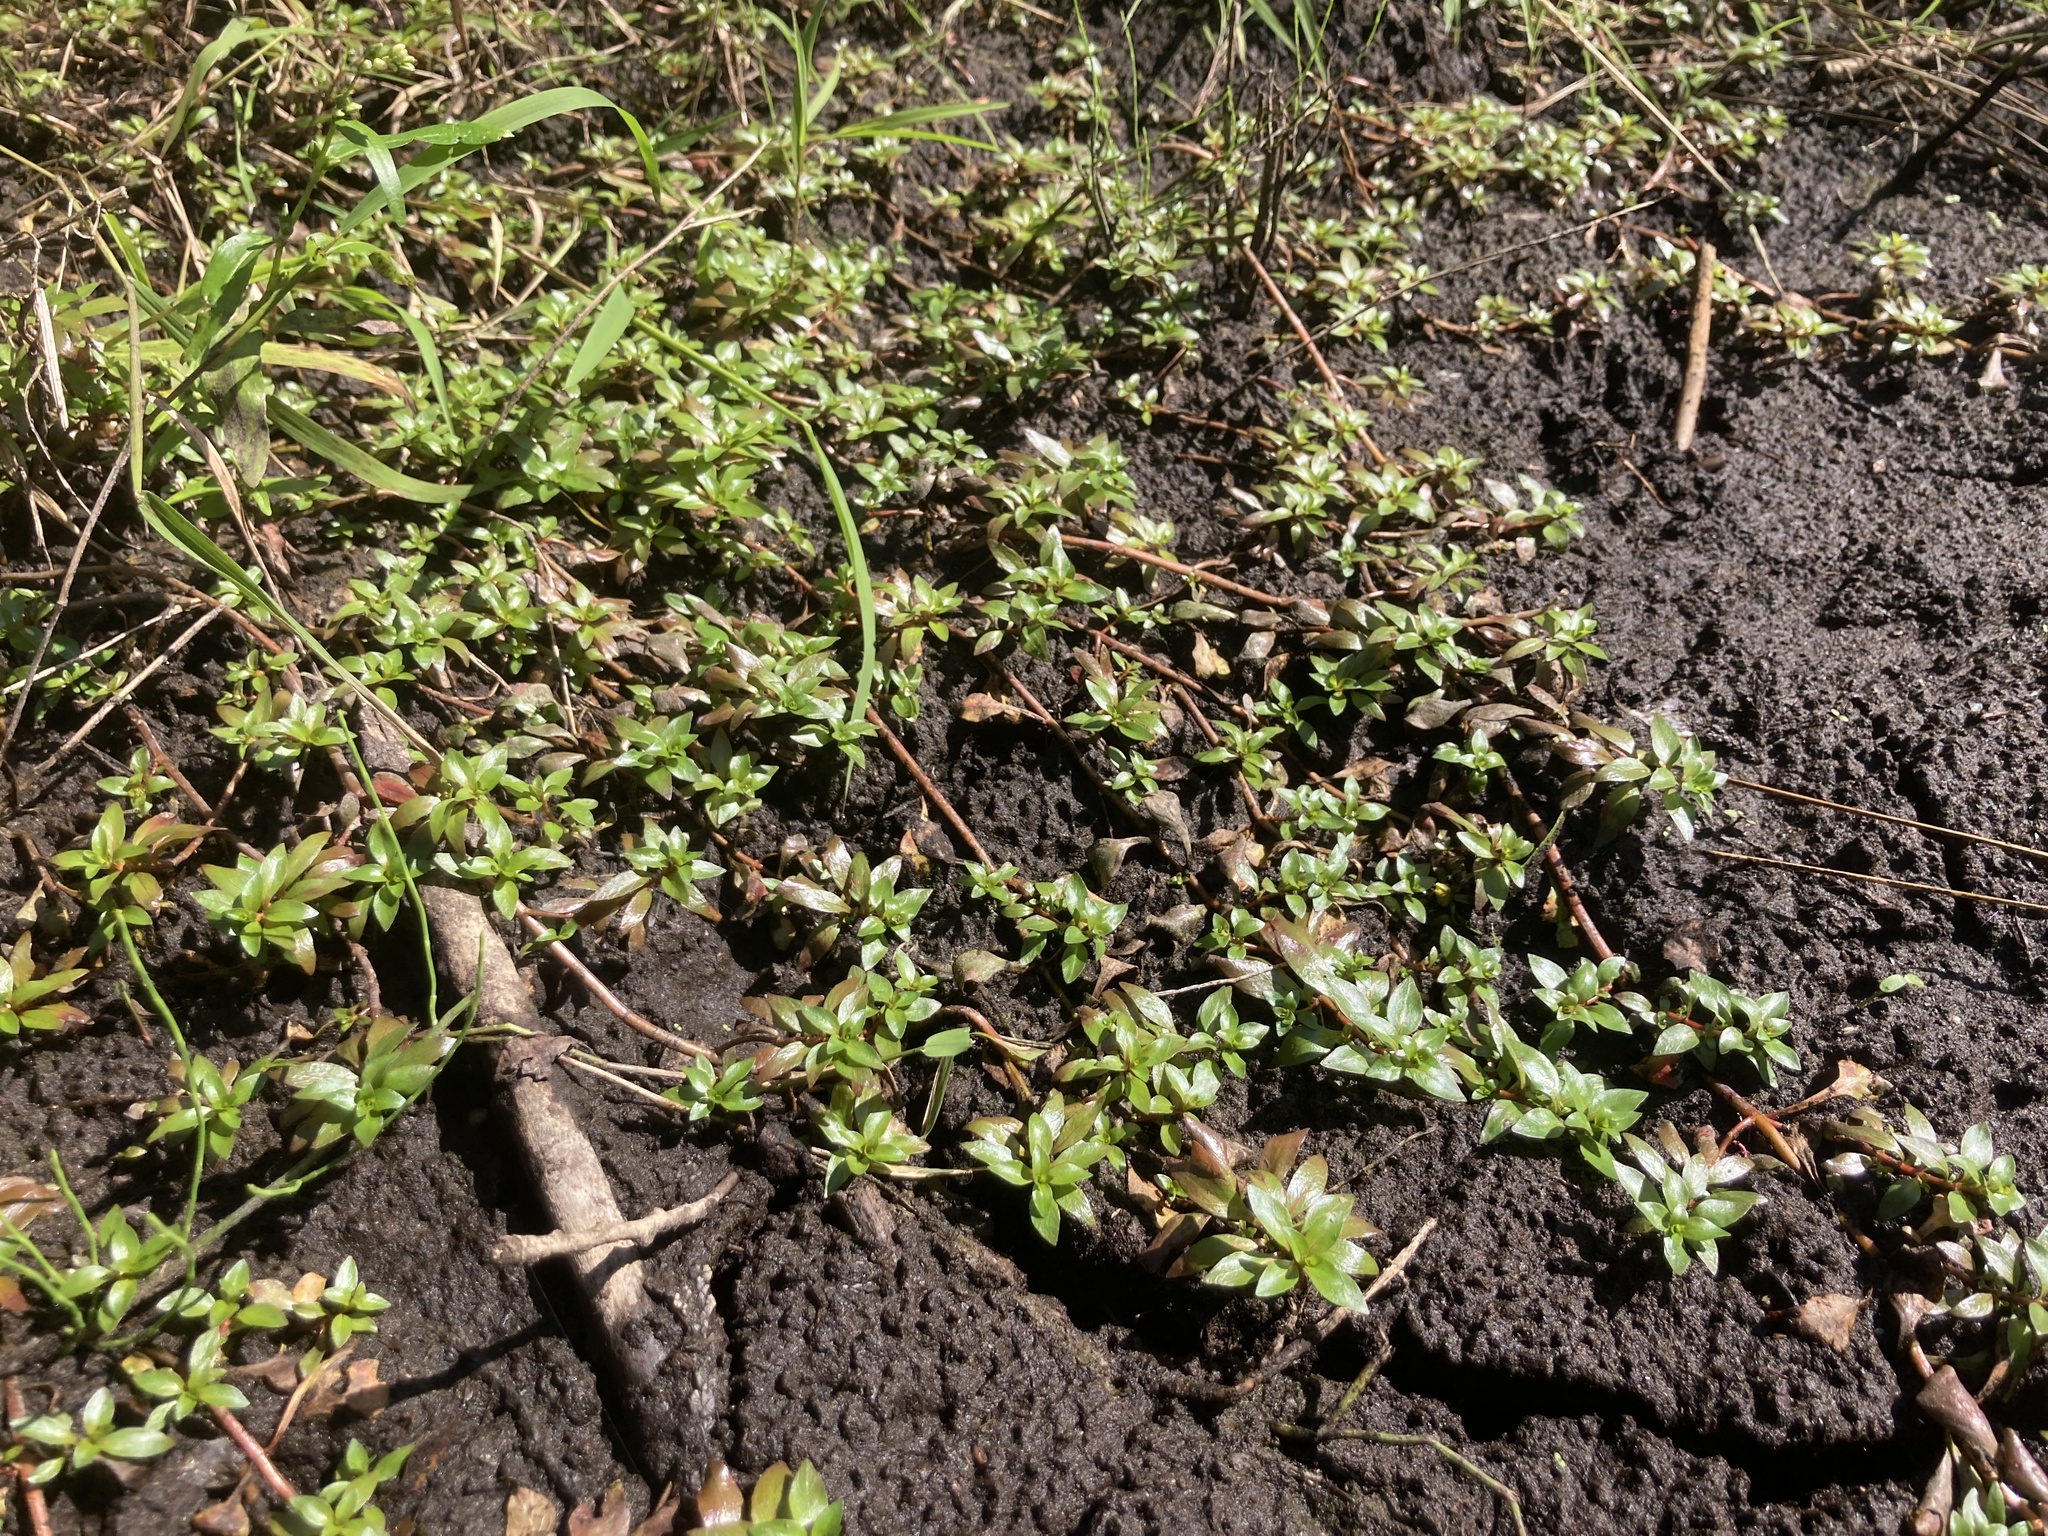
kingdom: Plantae
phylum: Tracheophyta
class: Magnoliopsida
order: Myrtales
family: Onagraceae
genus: Ludwigia
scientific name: Ludwigia palustris
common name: Hampshire-purslane
